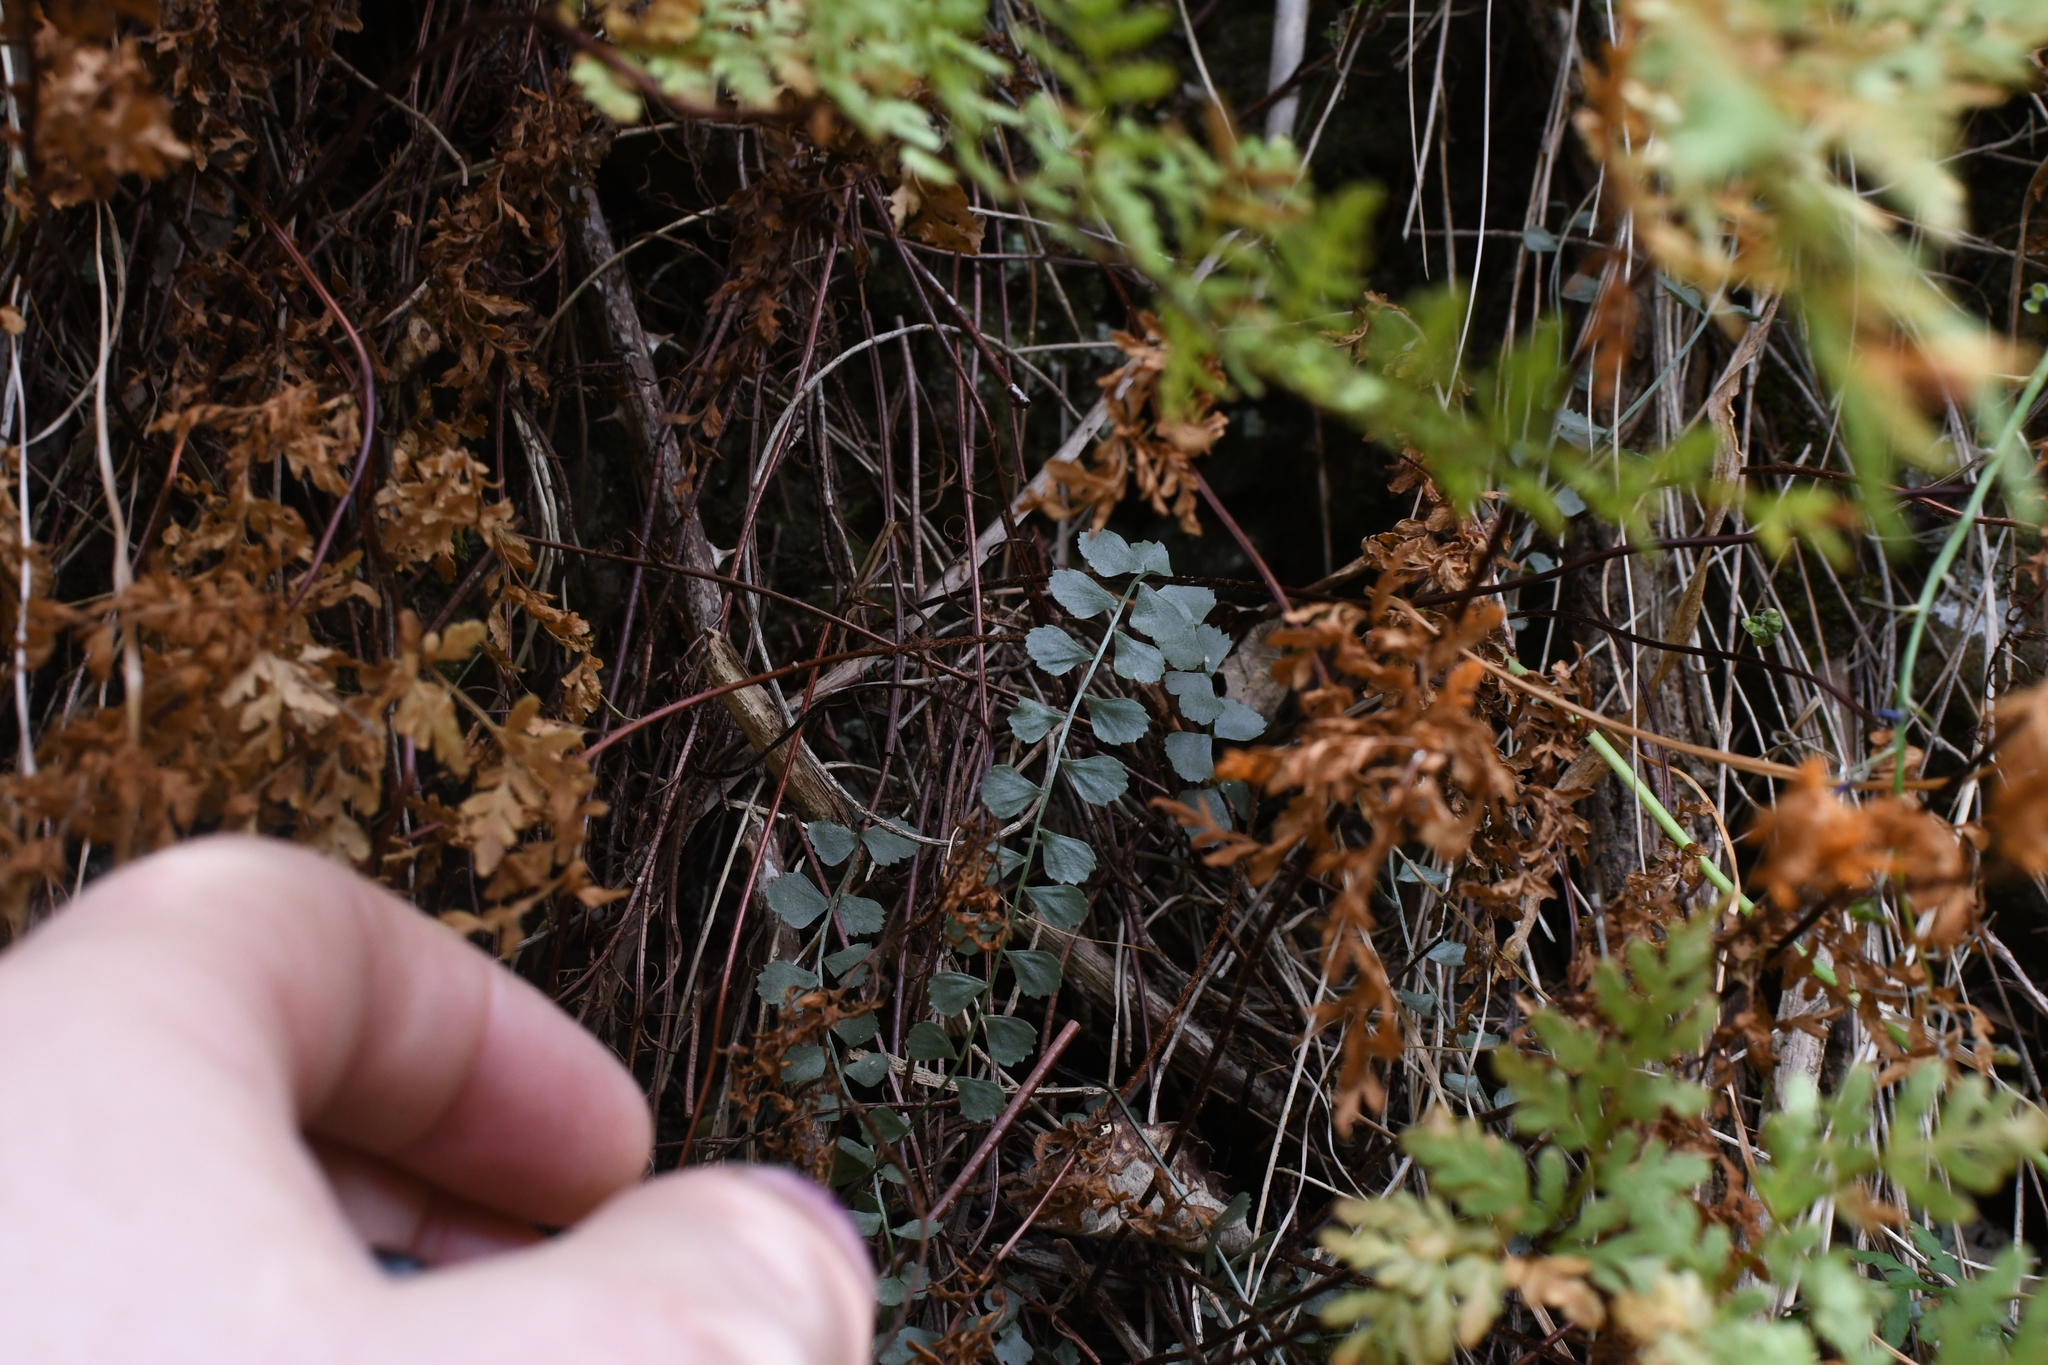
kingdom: Plantae
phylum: Tracheophyta
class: Polypodiopsida
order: Polypodiales
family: Aspleniaceae
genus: Asplenium
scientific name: Asplenium flabellifolium
